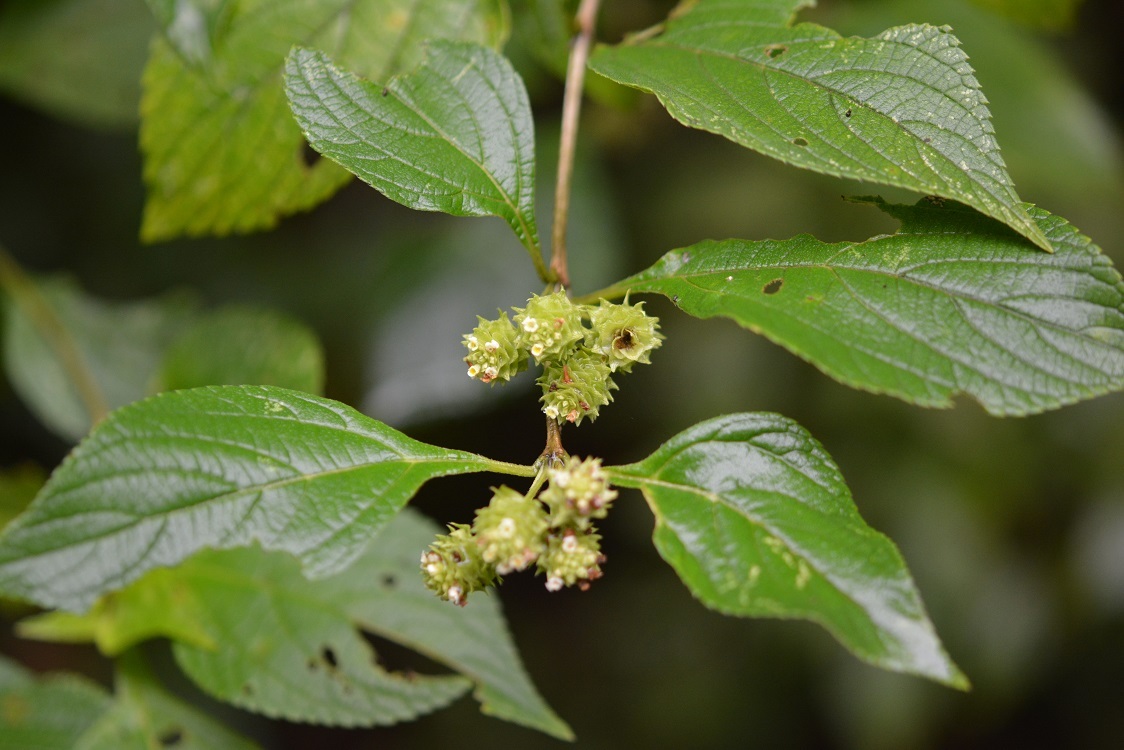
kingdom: Plantae
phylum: Tracheophyta
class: Magnoliopsida
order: Lamiales
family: Verbenaceae
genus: Lippia
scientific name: Lippia cardiostegia
